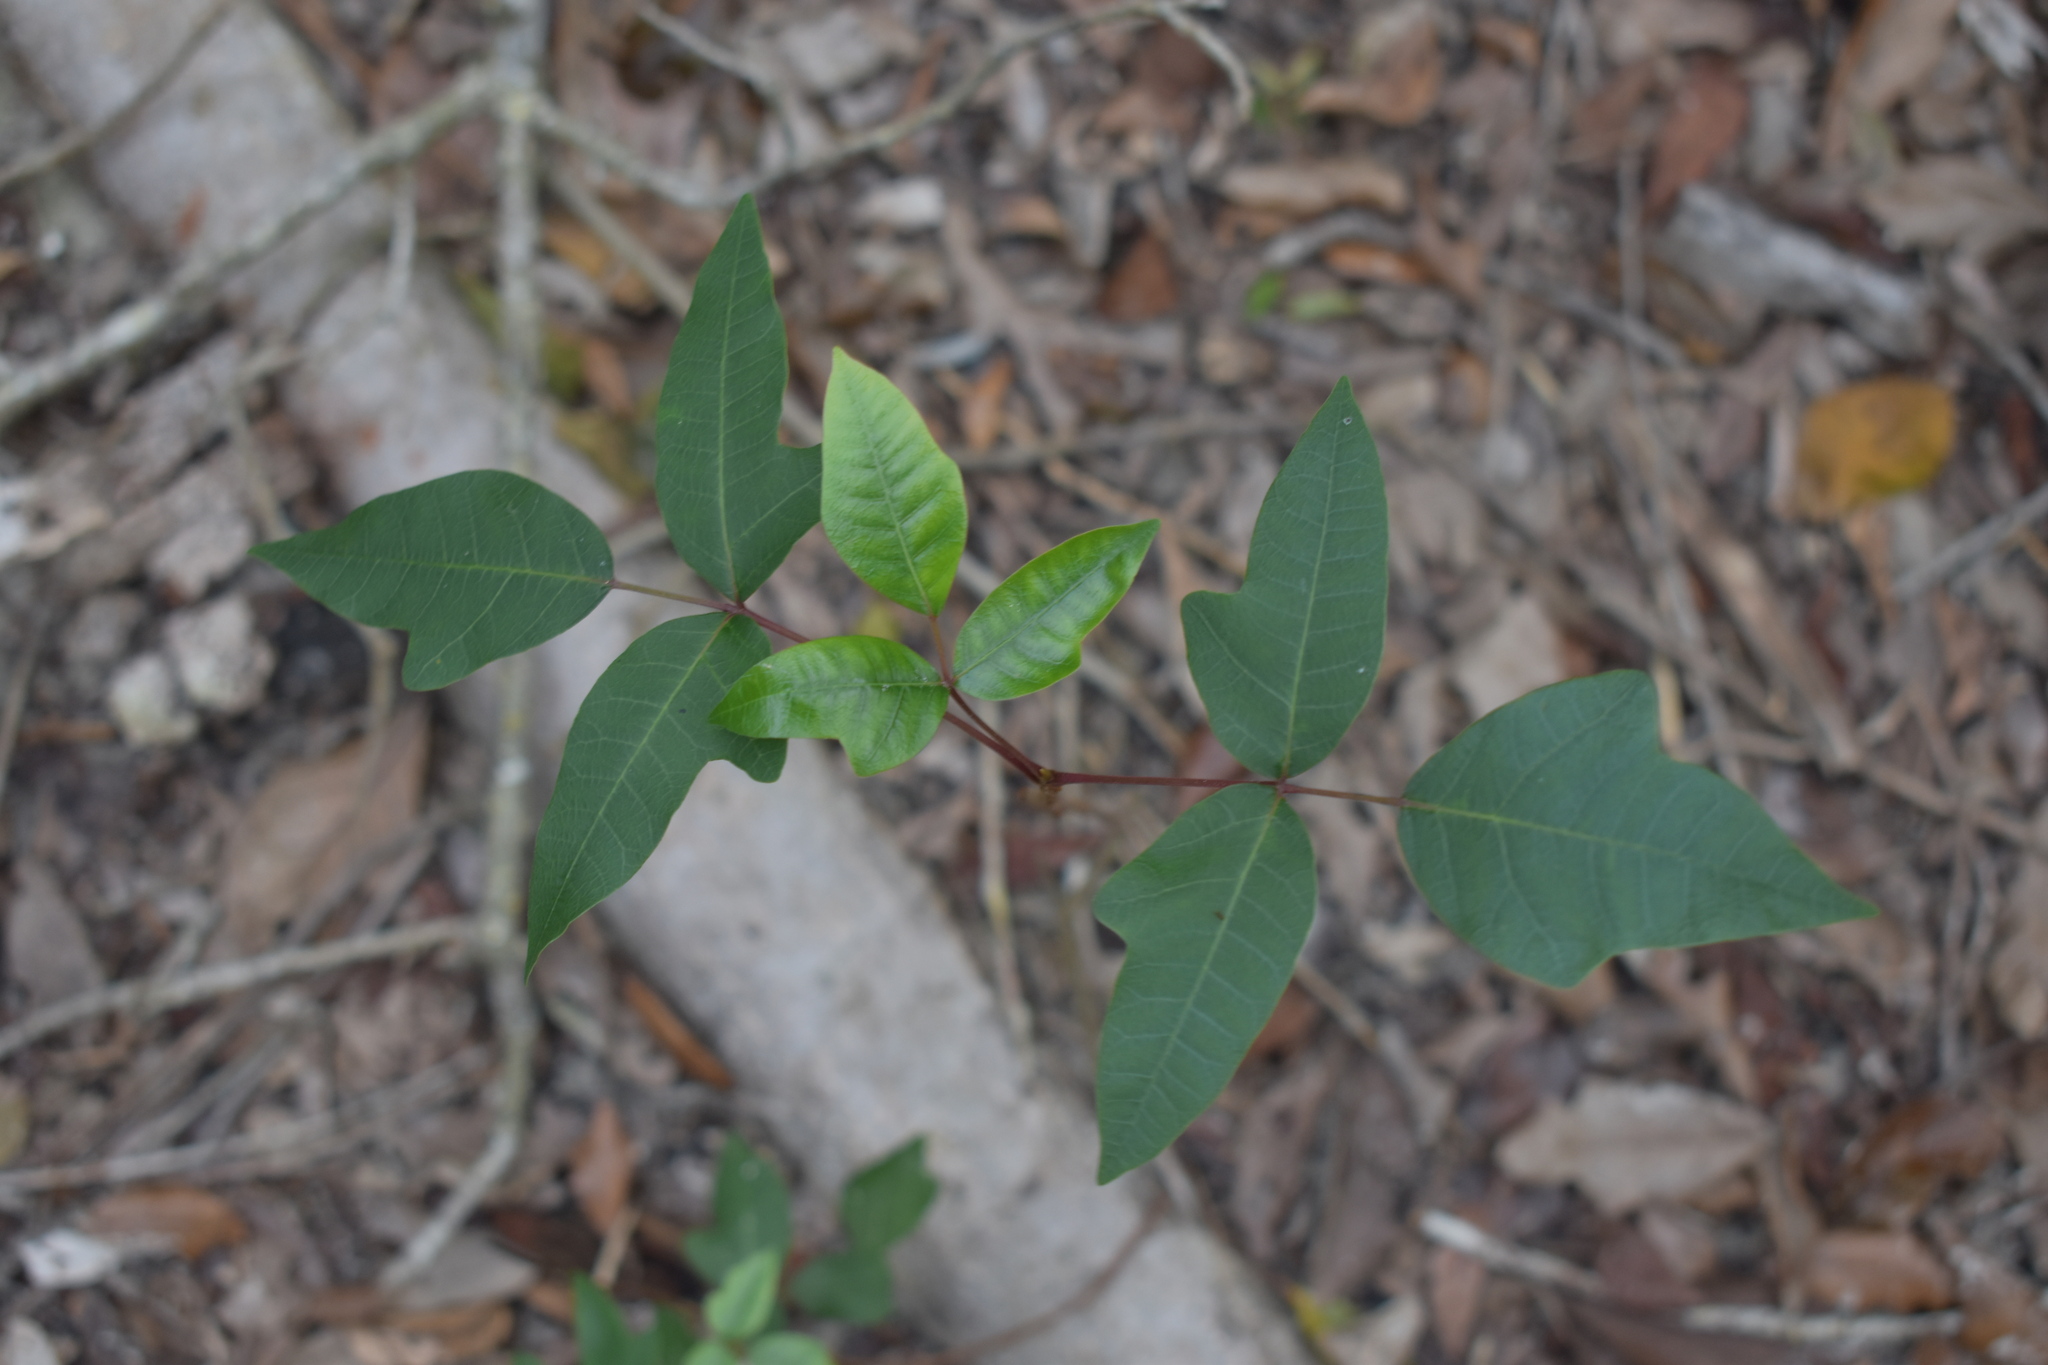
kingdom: Plantae
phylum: Tracheophyta
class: Magnoliopsida
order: Sapindales
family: Anacardiaceae
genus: Toxicodendron
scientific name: Toxicodendron radicans
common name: Poison ivy
